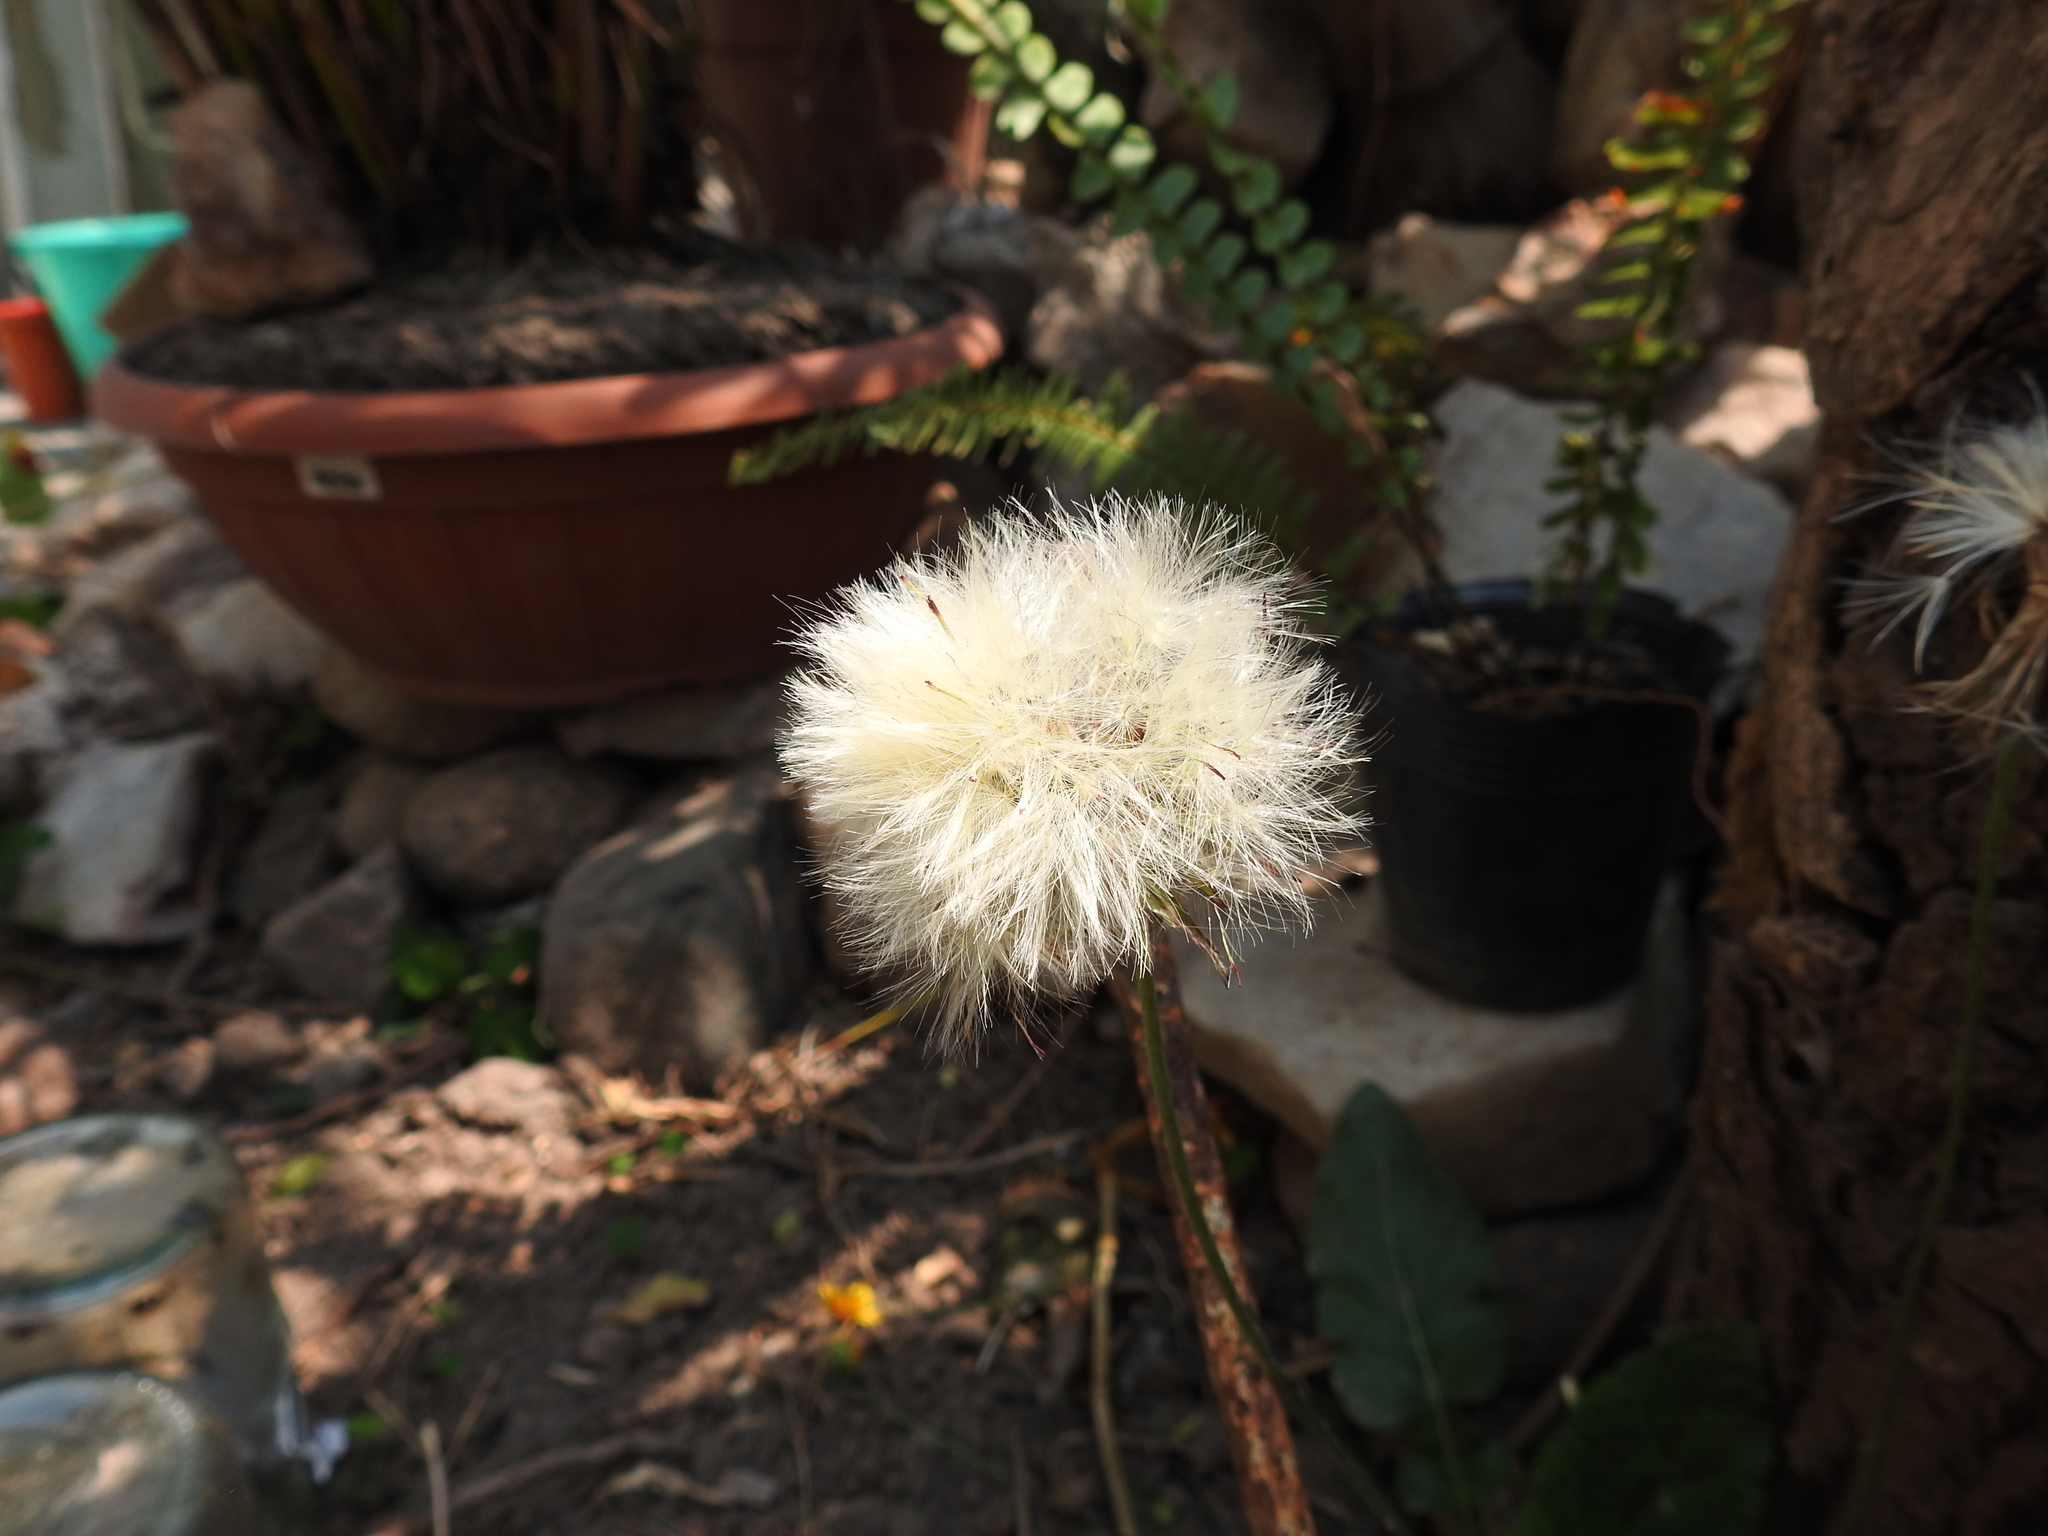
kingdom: Plantae
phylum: Tracheophyta
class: Magnoliopsida
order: Asterales
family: Asteraceae
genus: Chaptalia
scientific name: Chaptalia nutans
